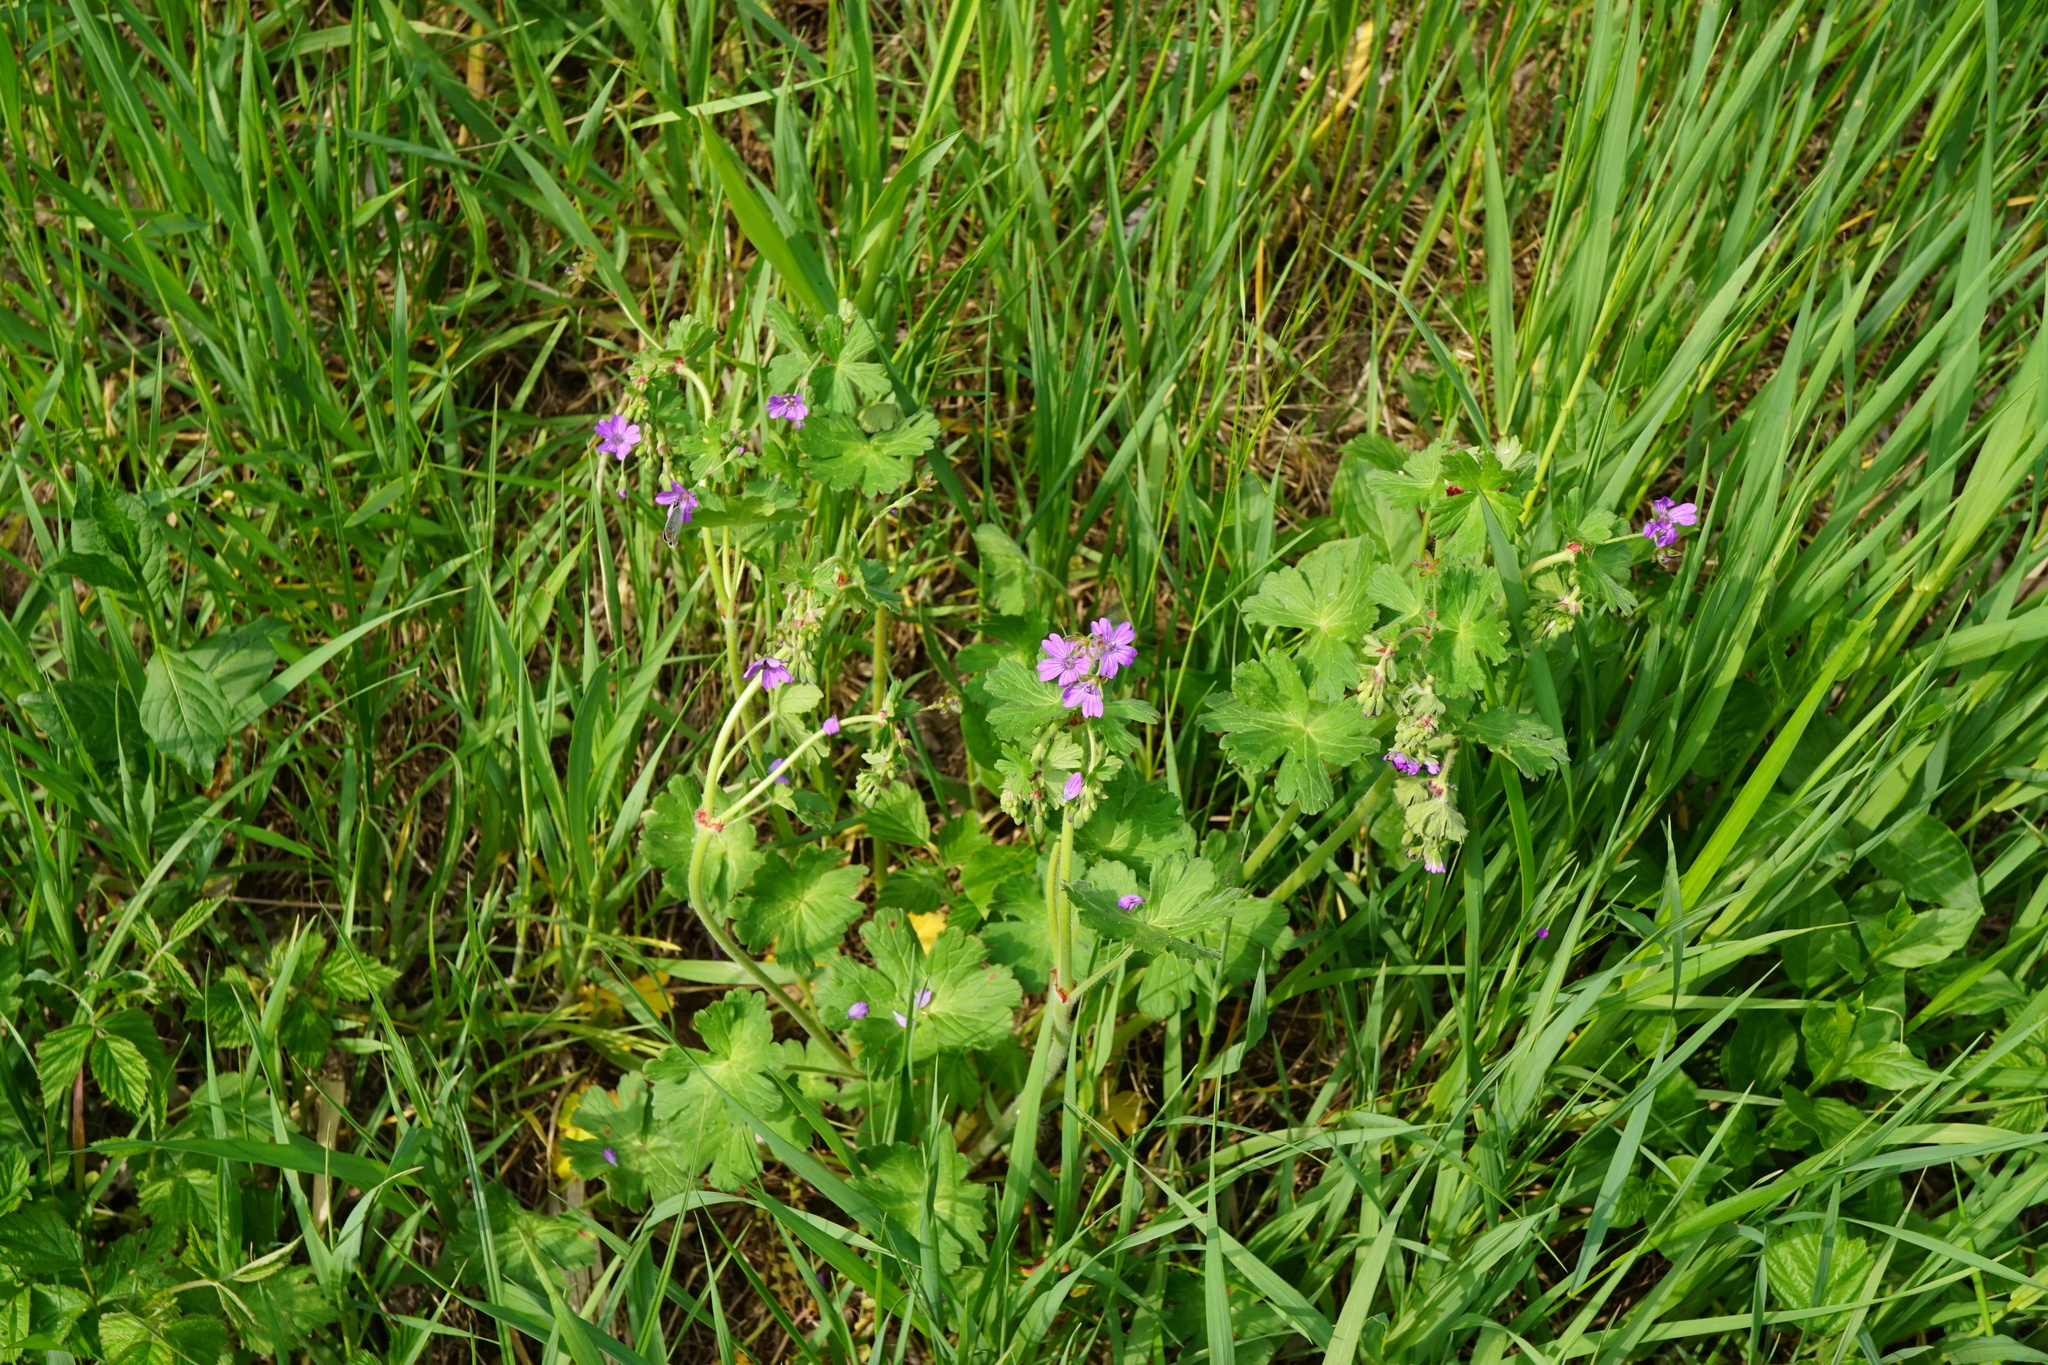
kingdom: Plantae
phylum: Tracheophyta
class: Magnoliopsida
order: Geraniales
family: Geraniaceae
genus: Geranium
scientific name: Geranium pyrenaicum
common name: Hedgerow crane's-bill
